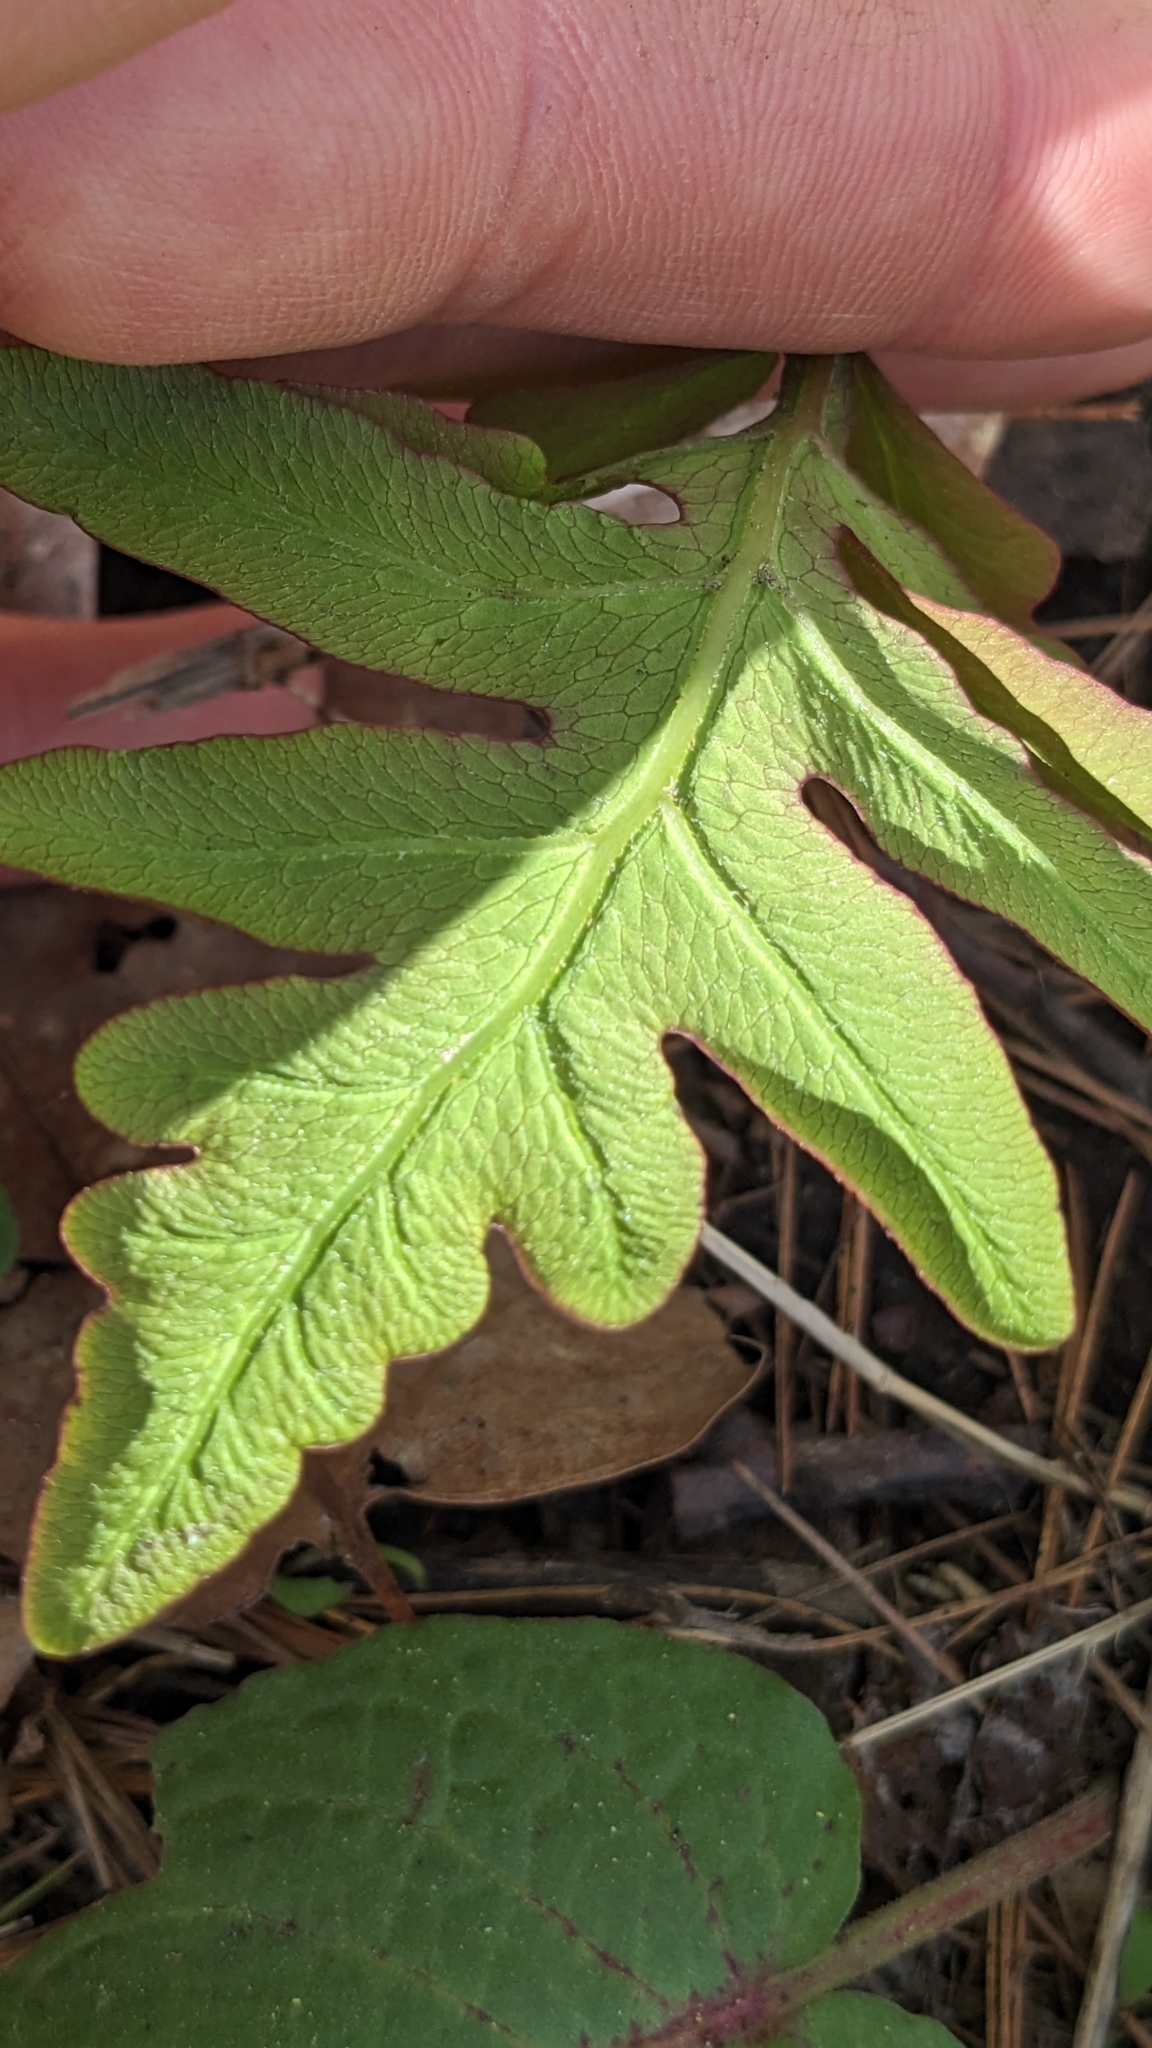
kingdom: Plantae
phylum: Tracheophyta
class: Polypodiopsida
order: Polypodiales
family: Onocleaceae
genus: Onoclea
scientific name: Onoclea sensibilis
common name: Sensitive fern
